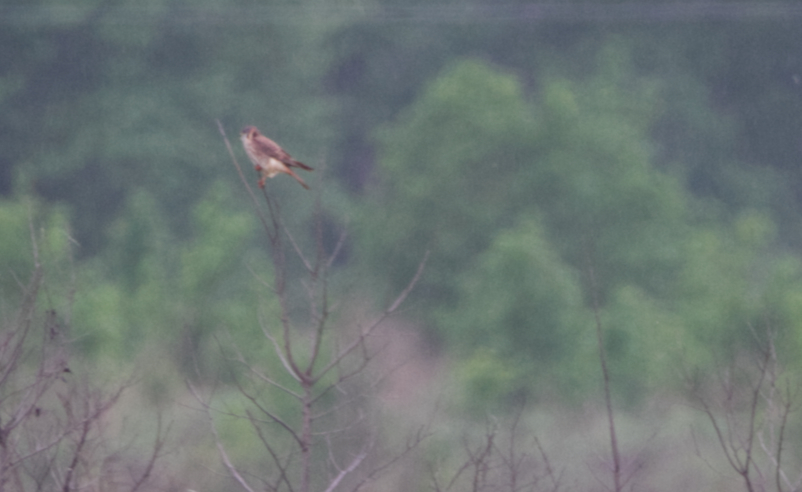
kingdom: Animalia
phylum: Chordata
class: Aves
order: Falconiformes
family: Falconidae
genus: Falco
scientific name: Falco sparverius
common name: American kestrel
